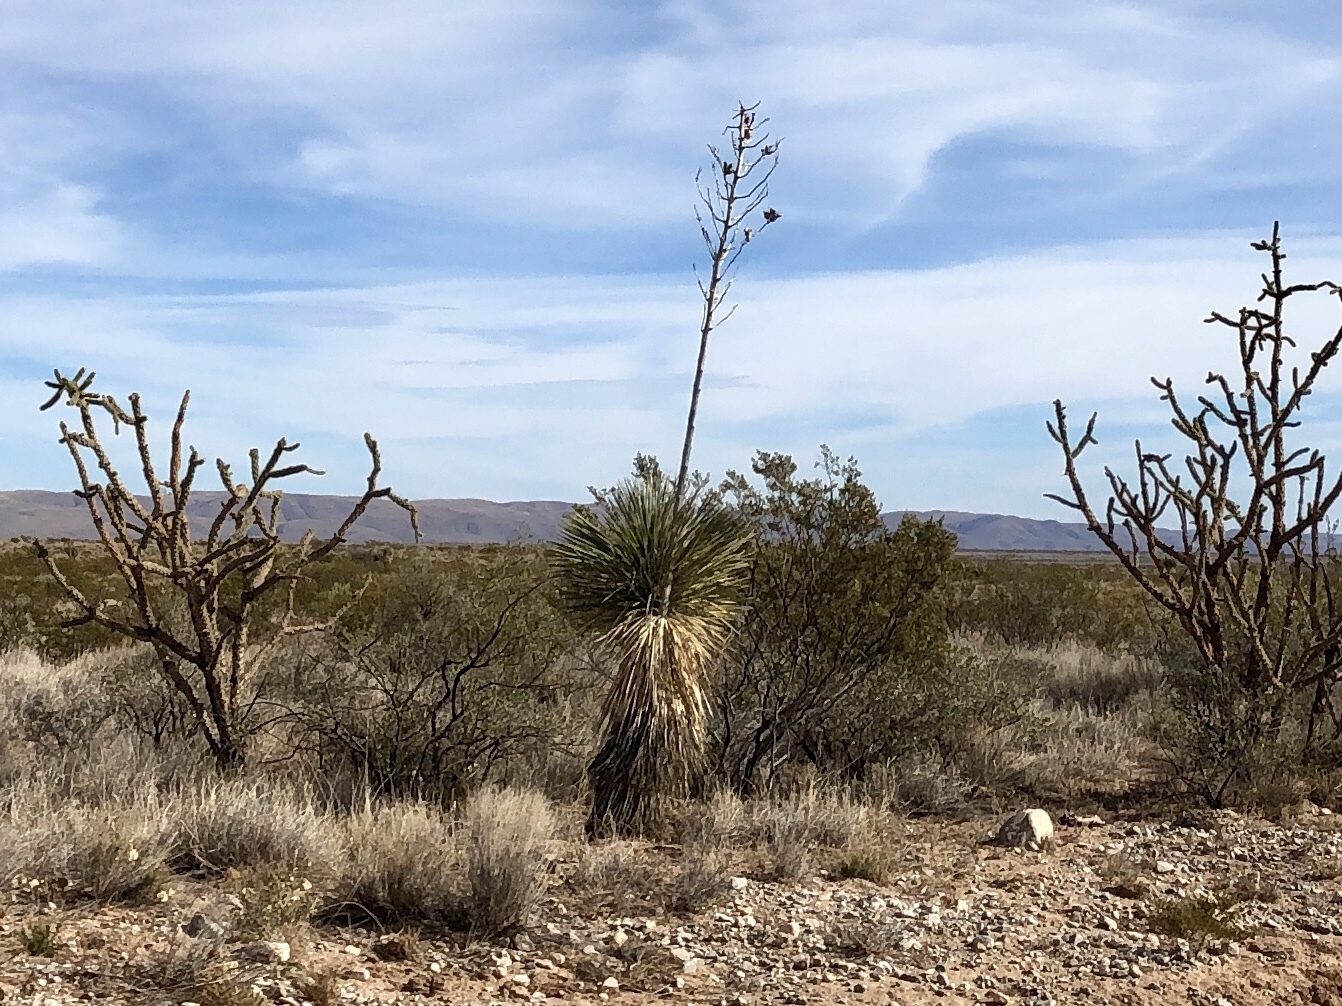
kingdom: Plantae
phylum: Tracheophyta
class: Liliopsida
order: Asparagales
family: Asparagaceae
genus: Yucca
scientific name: Yucca elata
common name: Palmella
